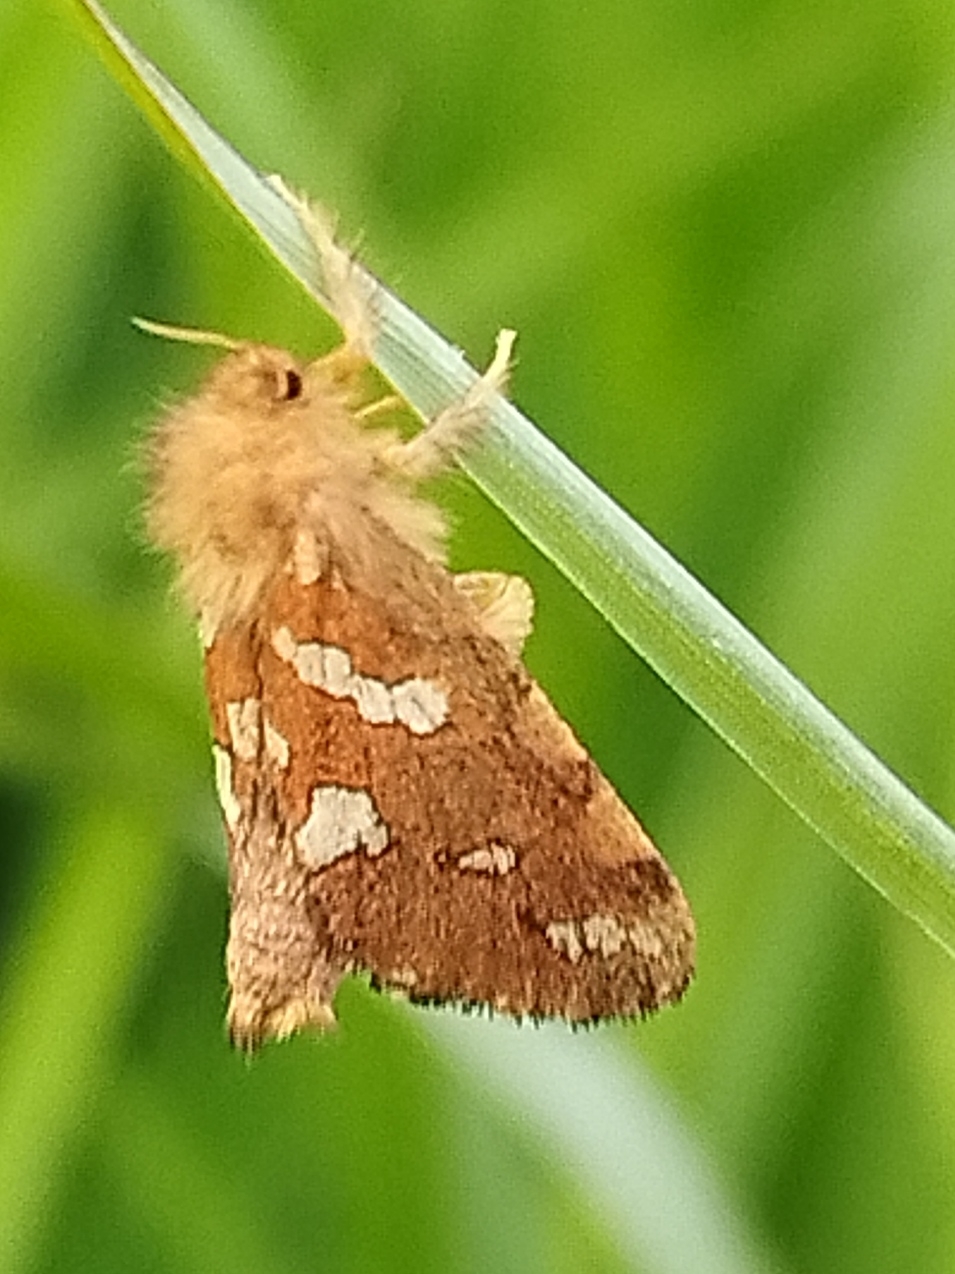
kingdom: Animalia
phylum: Arthropoda
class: Insecta
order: Lepidoptera
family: Hepialidae
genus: Phymatopus
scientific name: Phymatopus hecta
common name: Gold swift
